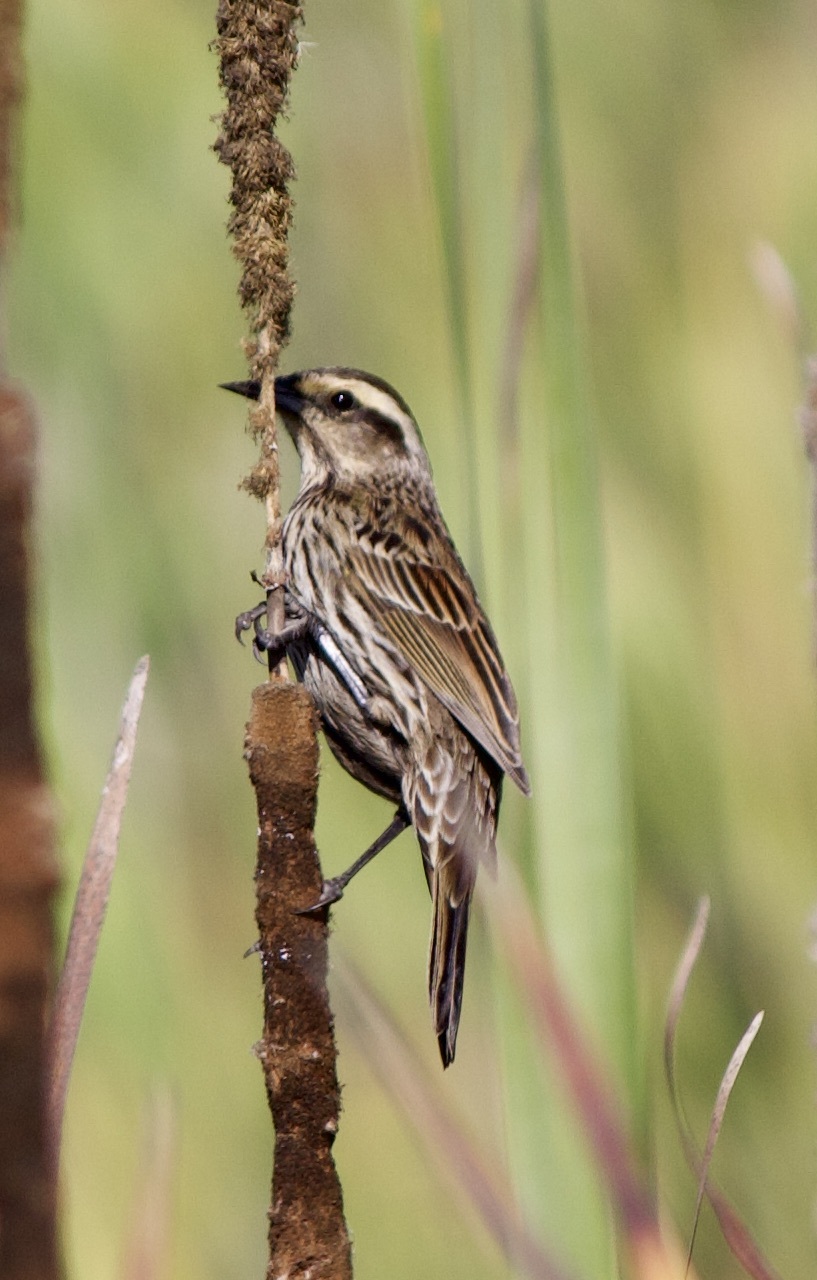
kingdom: Animalia
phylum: Chordata
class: Aves
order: Passeriformes
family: Icteridae
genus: Agelasticus
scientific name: Agelasticus thilius
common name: Yellow-winged blackbird
